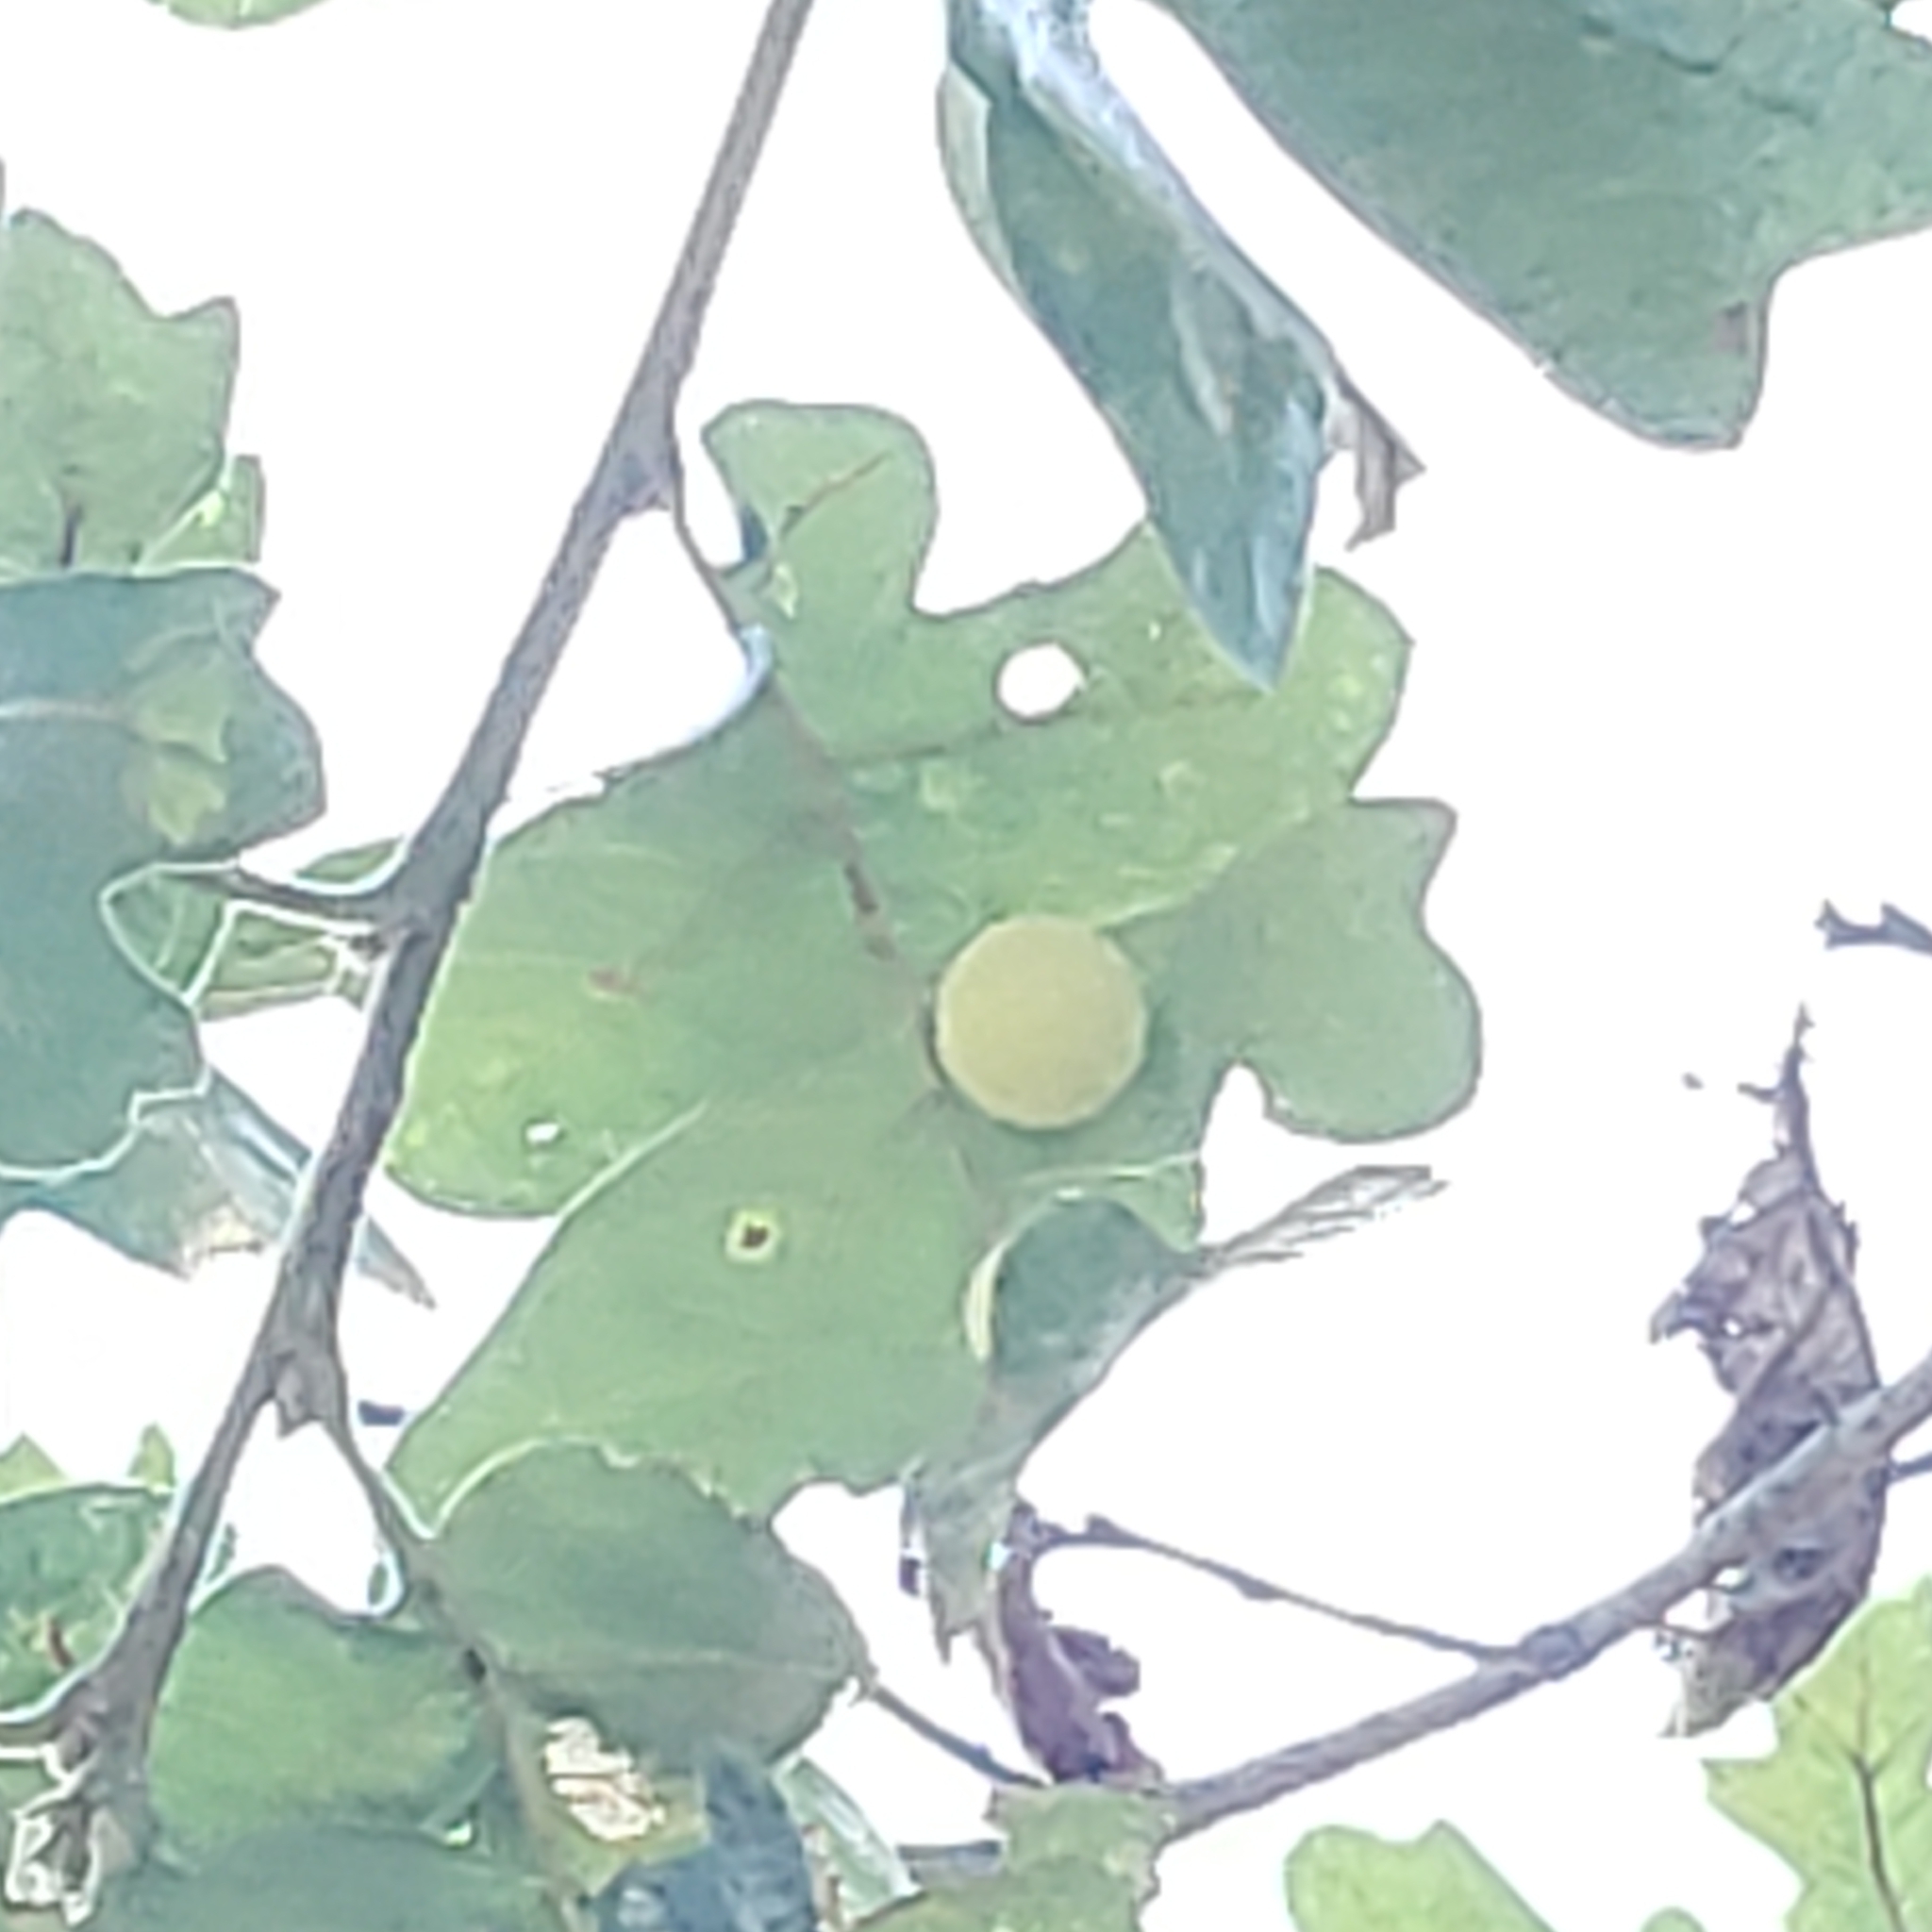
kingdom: Animalia
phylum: Arthropoda
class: Insecta
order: Hymenoptera
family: Cynipidae
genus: Cynips
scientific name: Cynips
